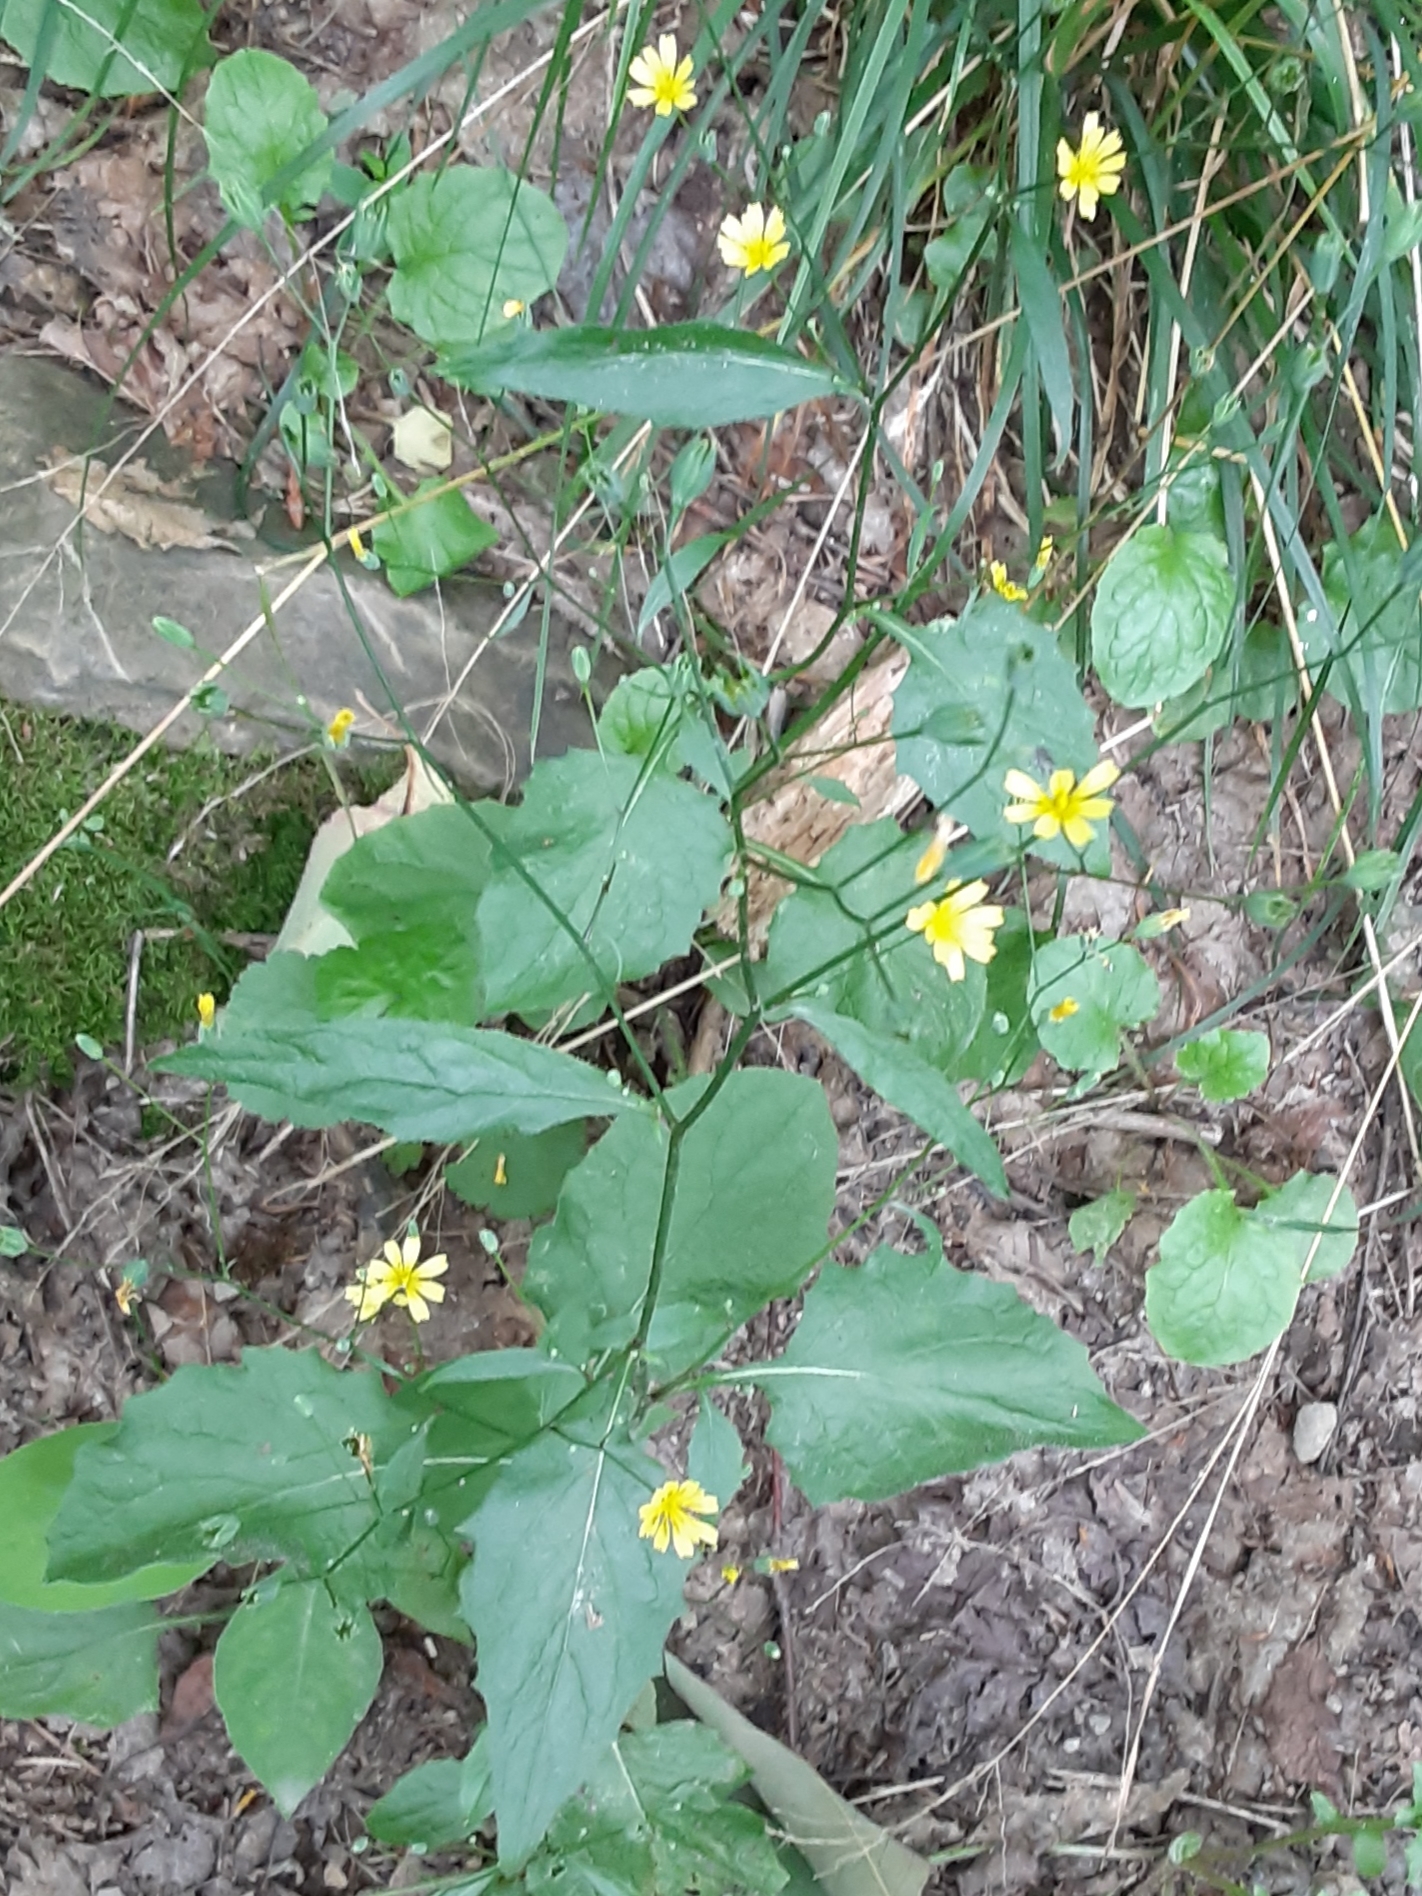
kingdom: Plantae
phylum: Tracheophyta
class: Magnoliopsida
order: Asterales
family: Asteraceae
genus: Lapsana
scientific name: Lapsana communis
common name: Nipplewort
